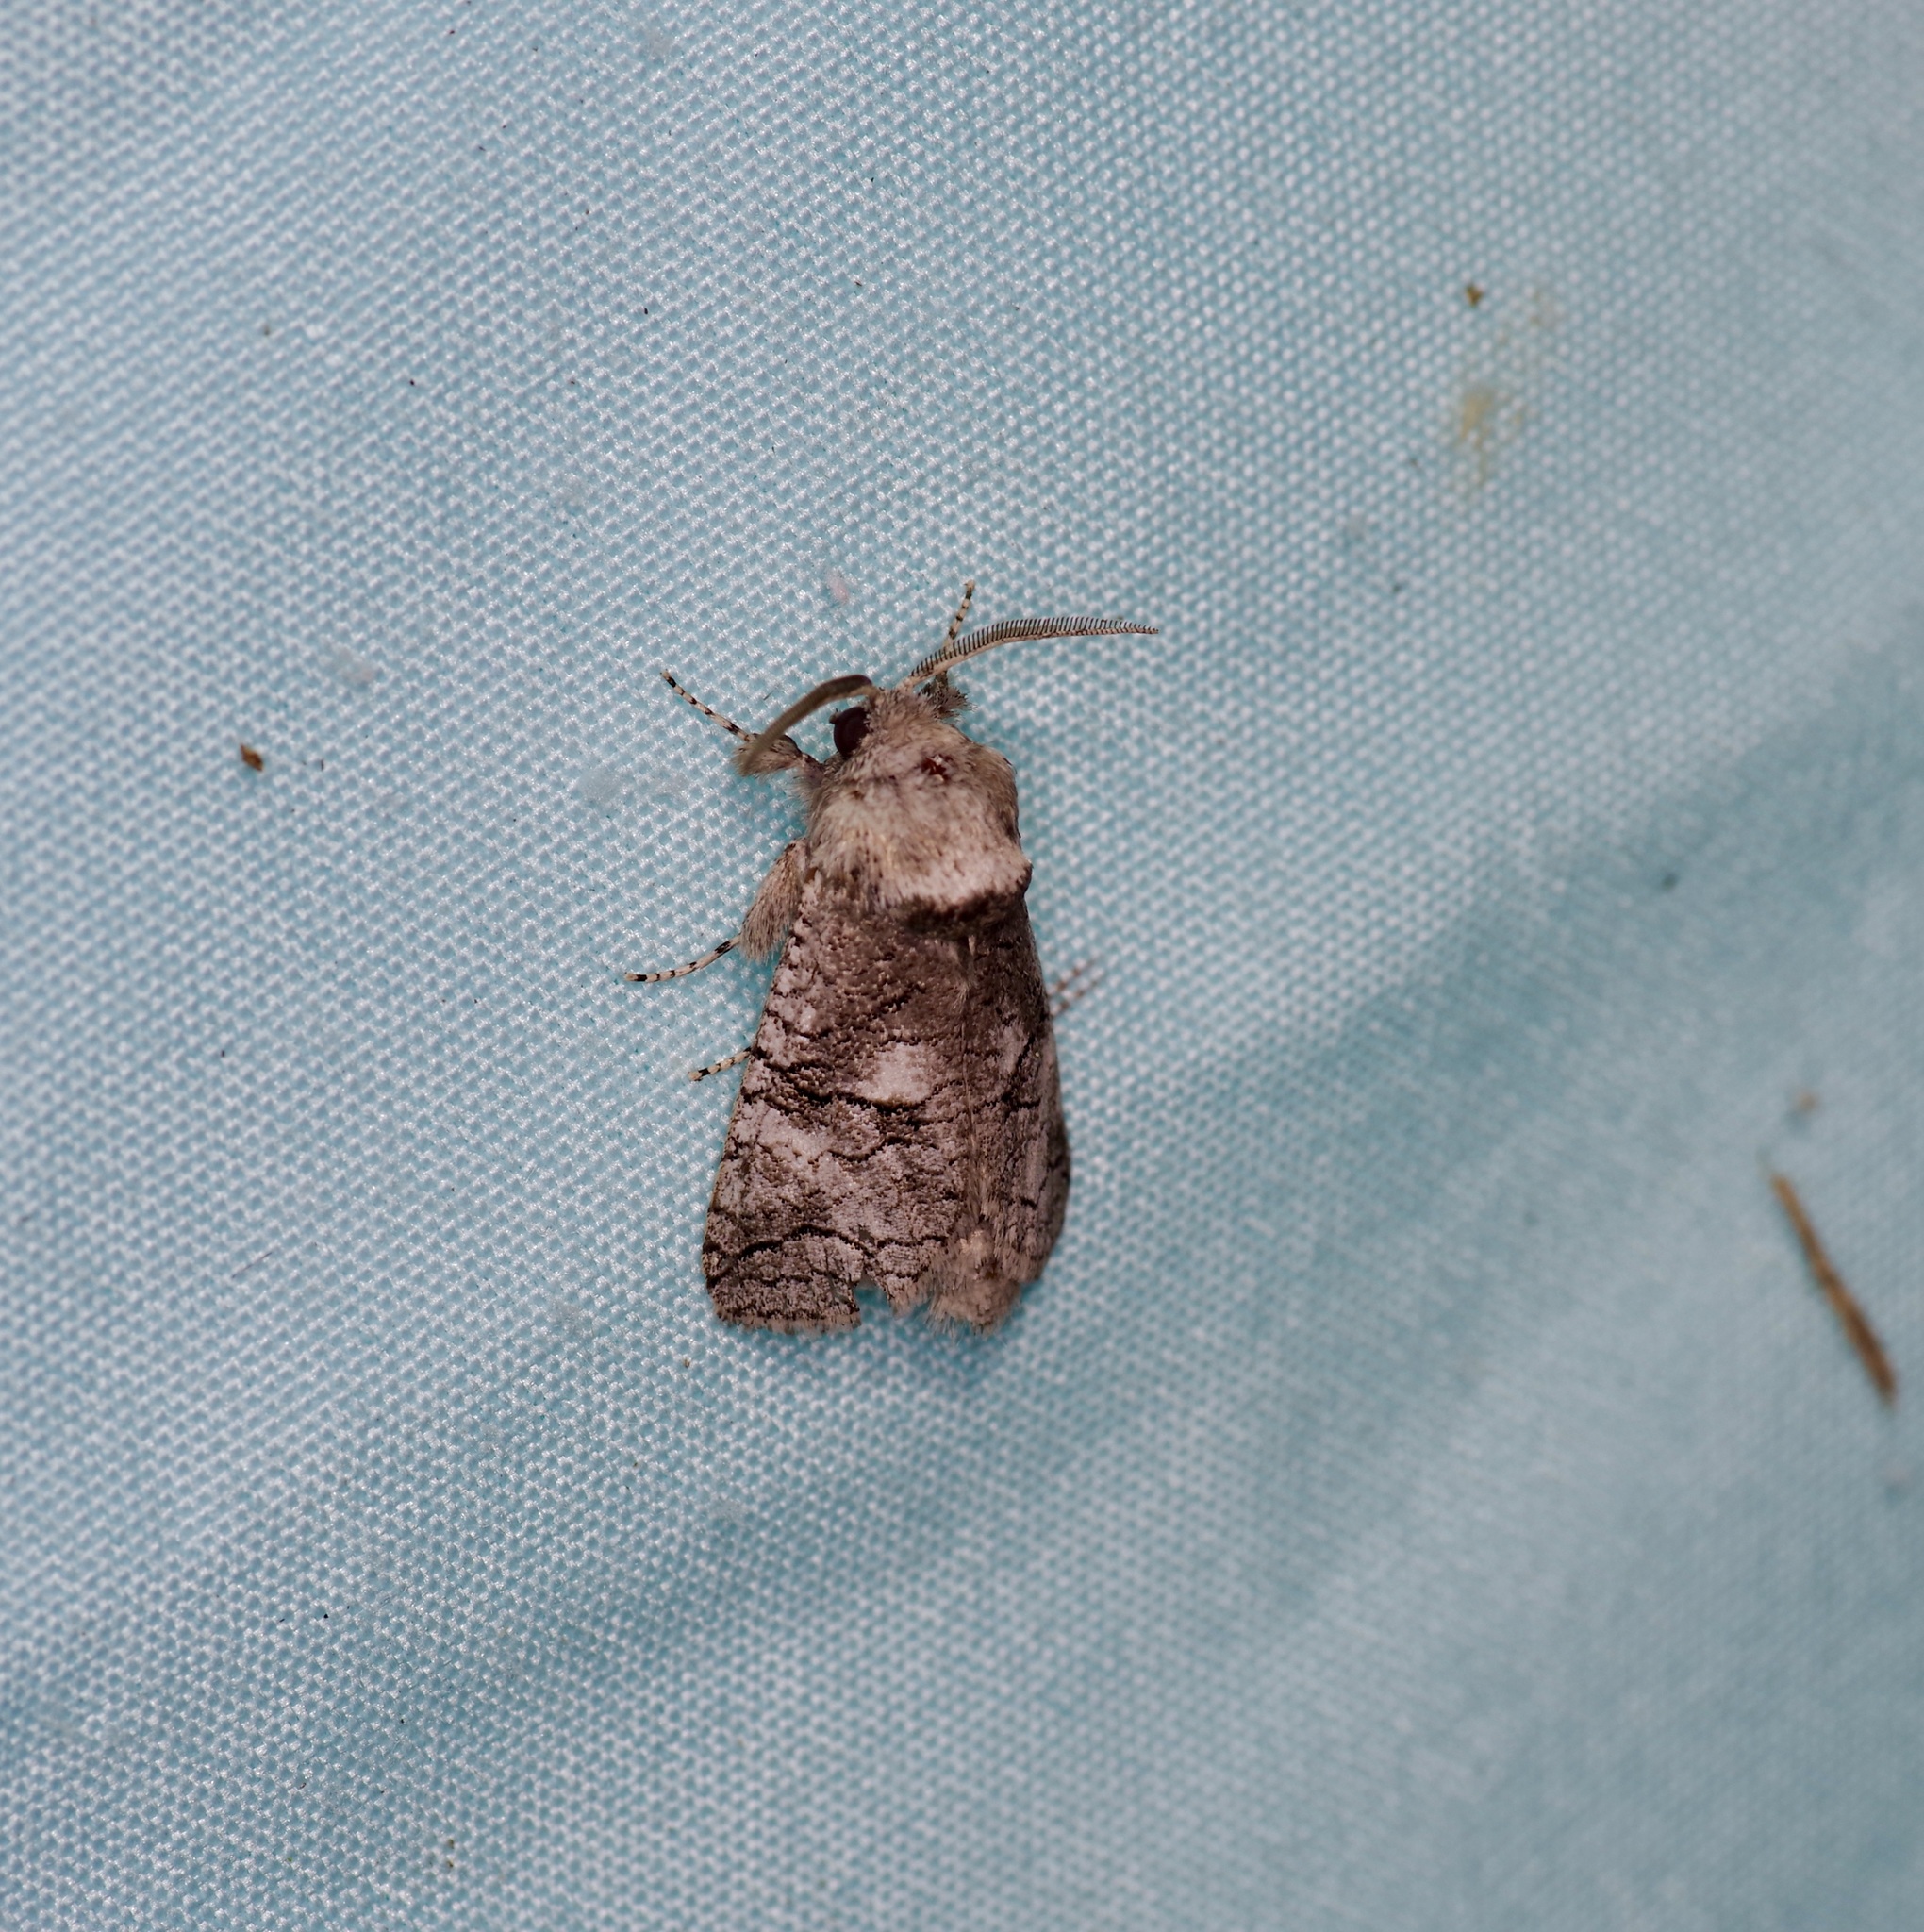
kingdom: Animalia
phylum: Arthropoda
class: Insecta
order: Lepidoptera
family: Cossidae
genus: Fania
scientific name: Fania nanus
